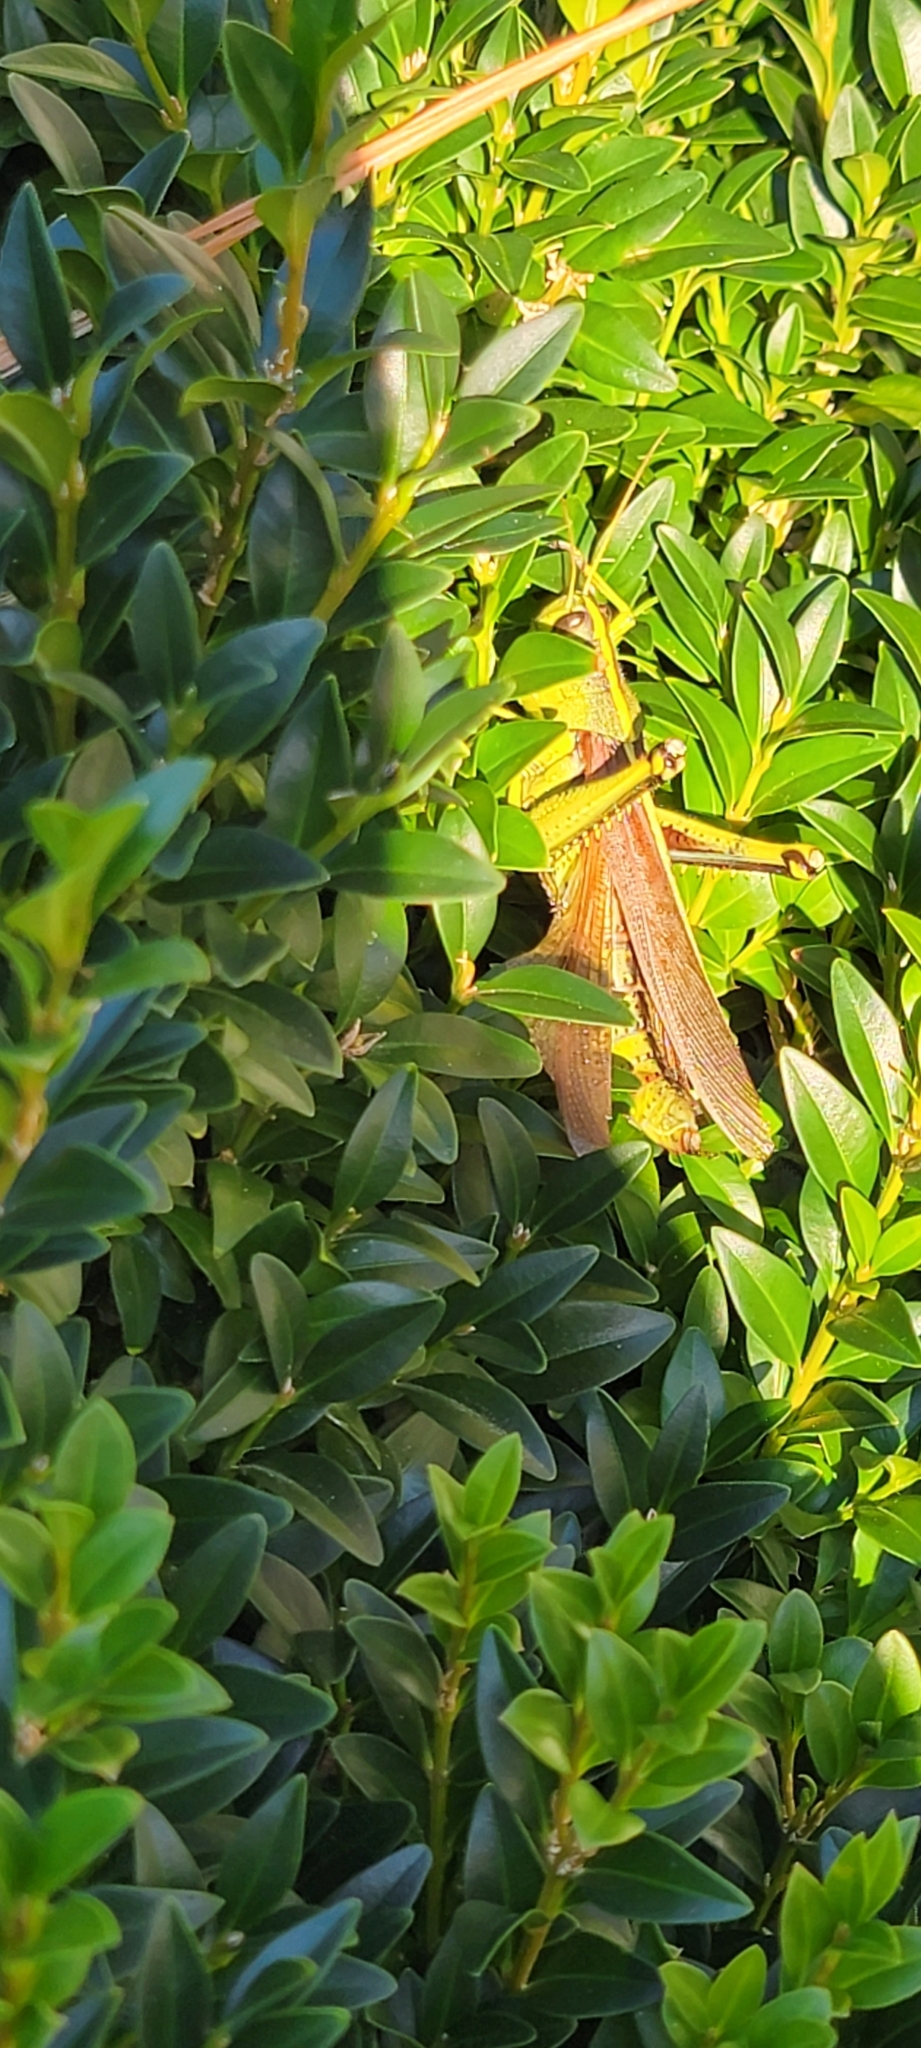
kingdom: Animalia
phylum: Arthropoda
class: Insecta
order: Orthoptera
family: Acrididae
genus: Schistocerca
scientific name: Schistocerca obscura
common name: Obscure bird grasshopper
